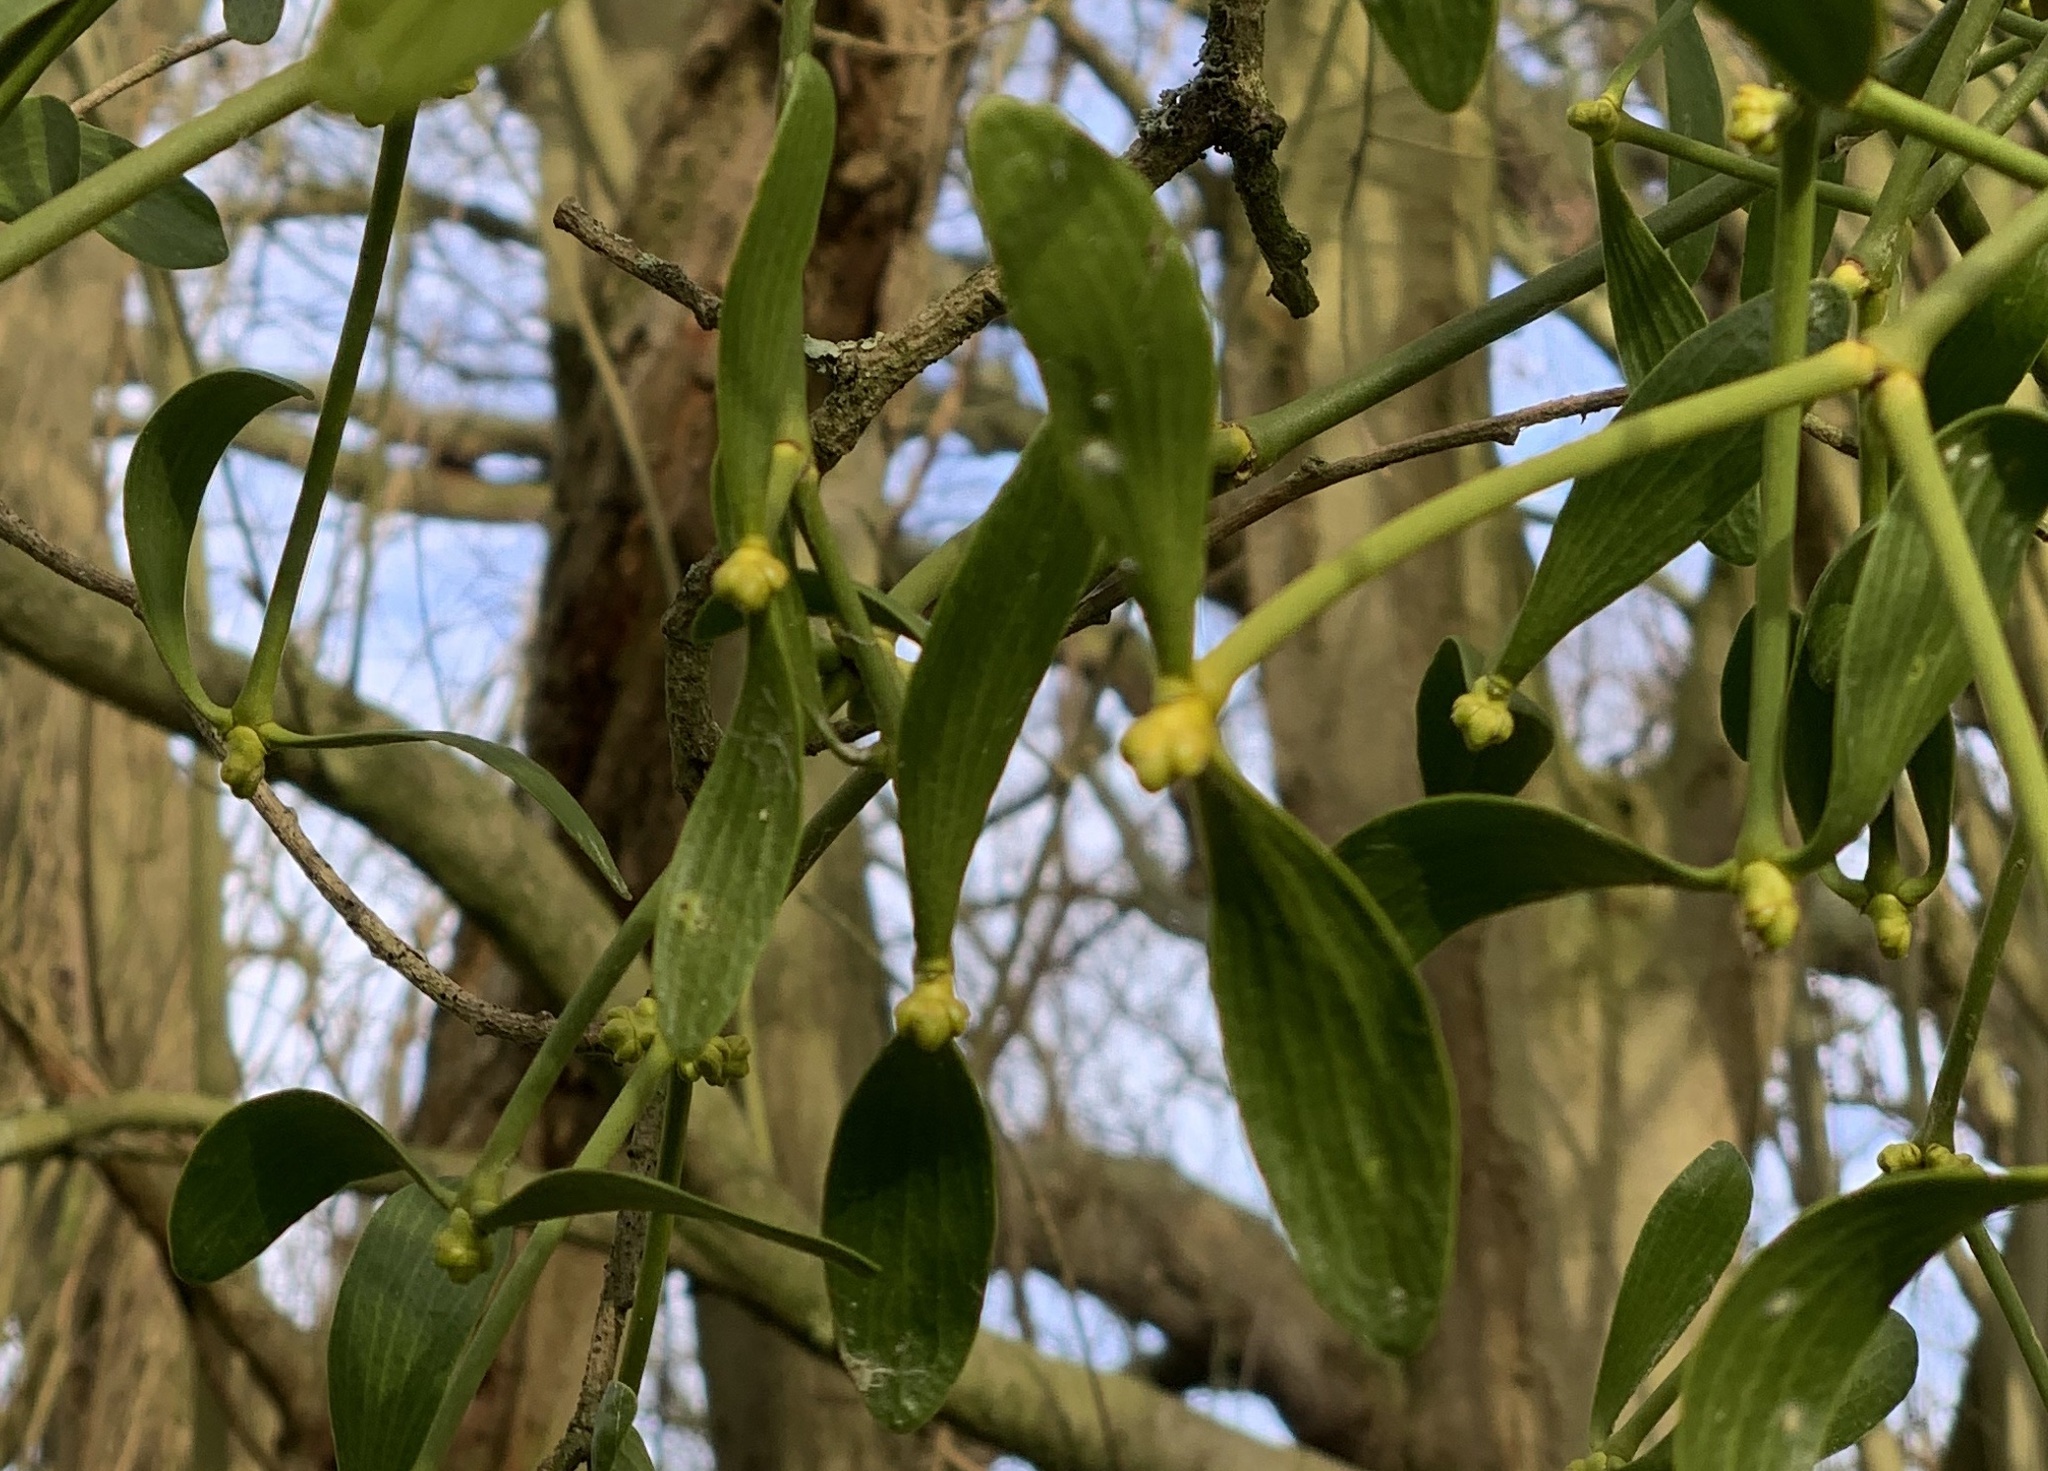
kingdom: Plantae
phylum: Tracheophyta
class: Magnoliopsida
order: Santalales
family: Viscaceae
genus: Viscum
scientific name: Viscum album
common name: Mistletoe
